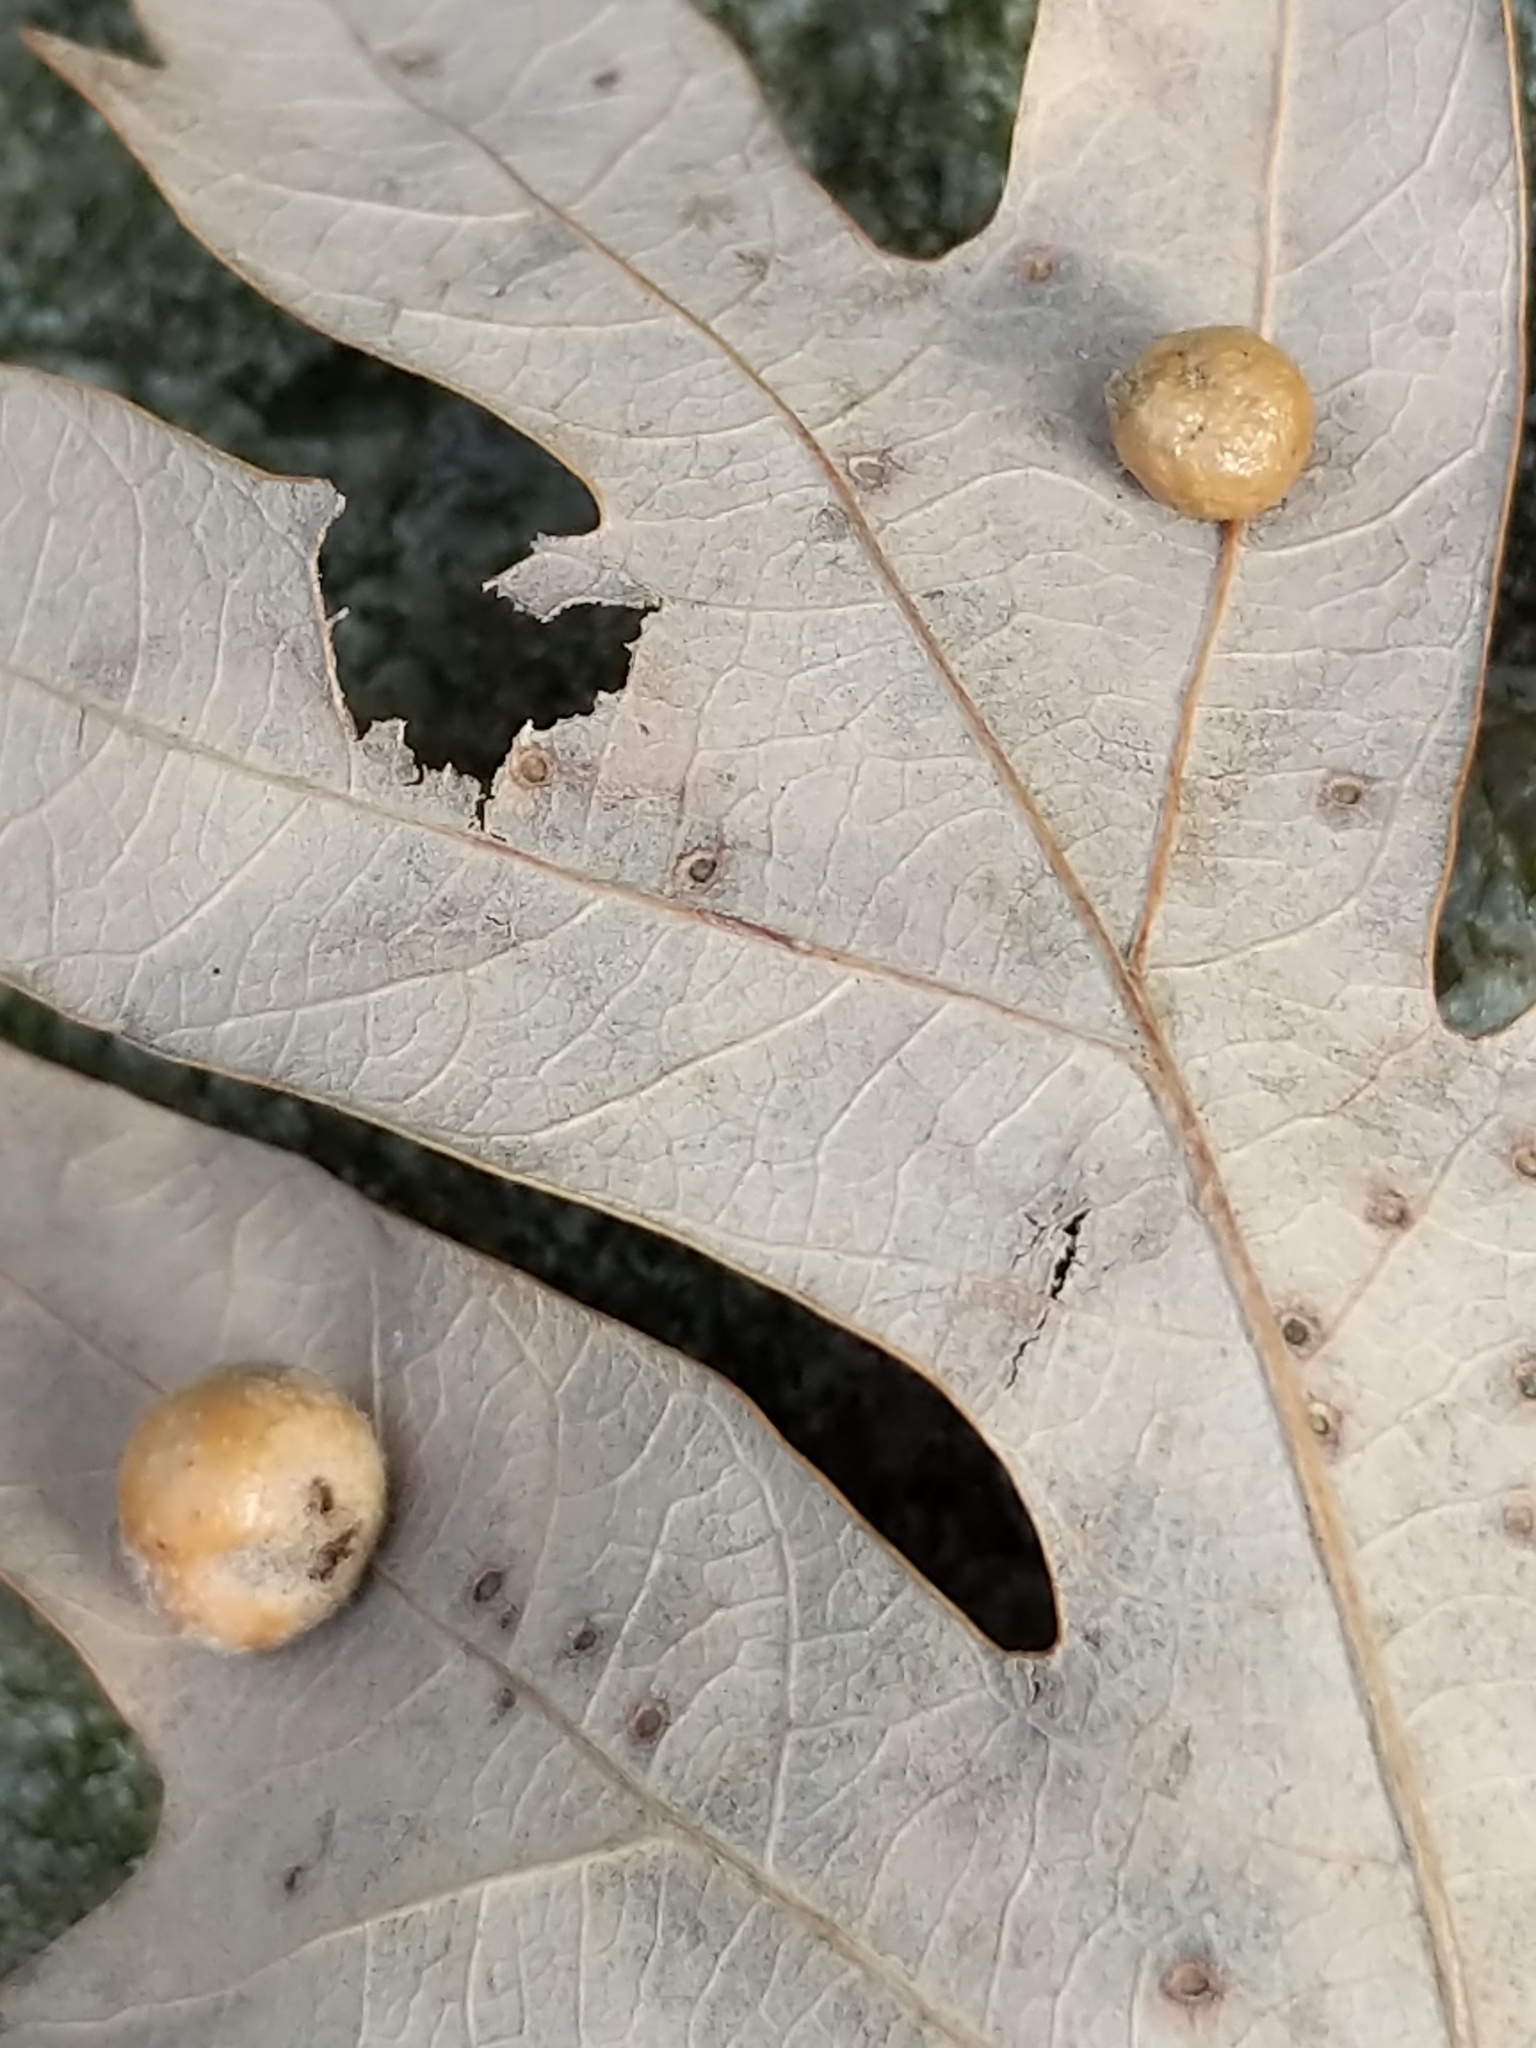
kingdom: Animalia
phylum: Arthropoda
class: Insecta
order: Hymenoptera
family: Cynipidae
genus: Philonix
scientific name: Philonix fulvicollis
